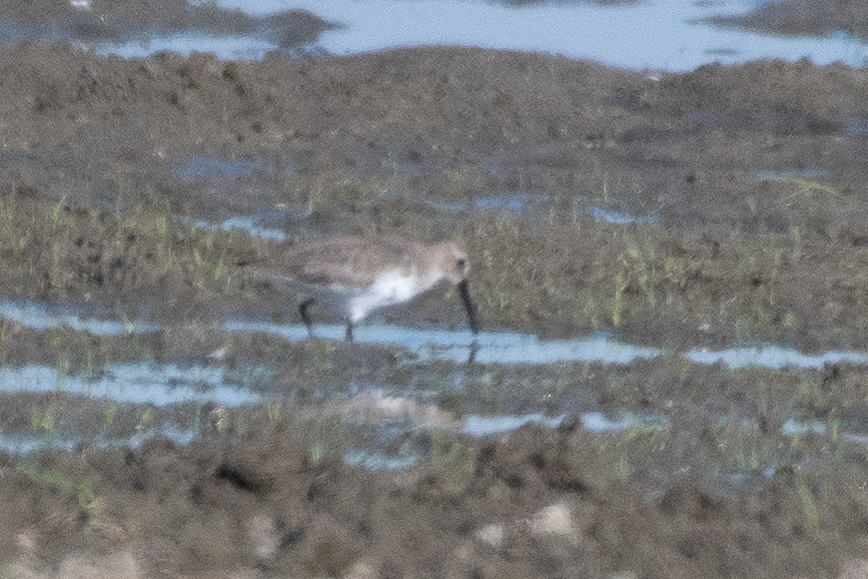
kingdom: Animalia
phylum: Chordata
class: Aves
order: Charadriiformes
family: Scolopacidae
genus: Calidris
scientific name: Calidris alpina
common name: Dunlin
